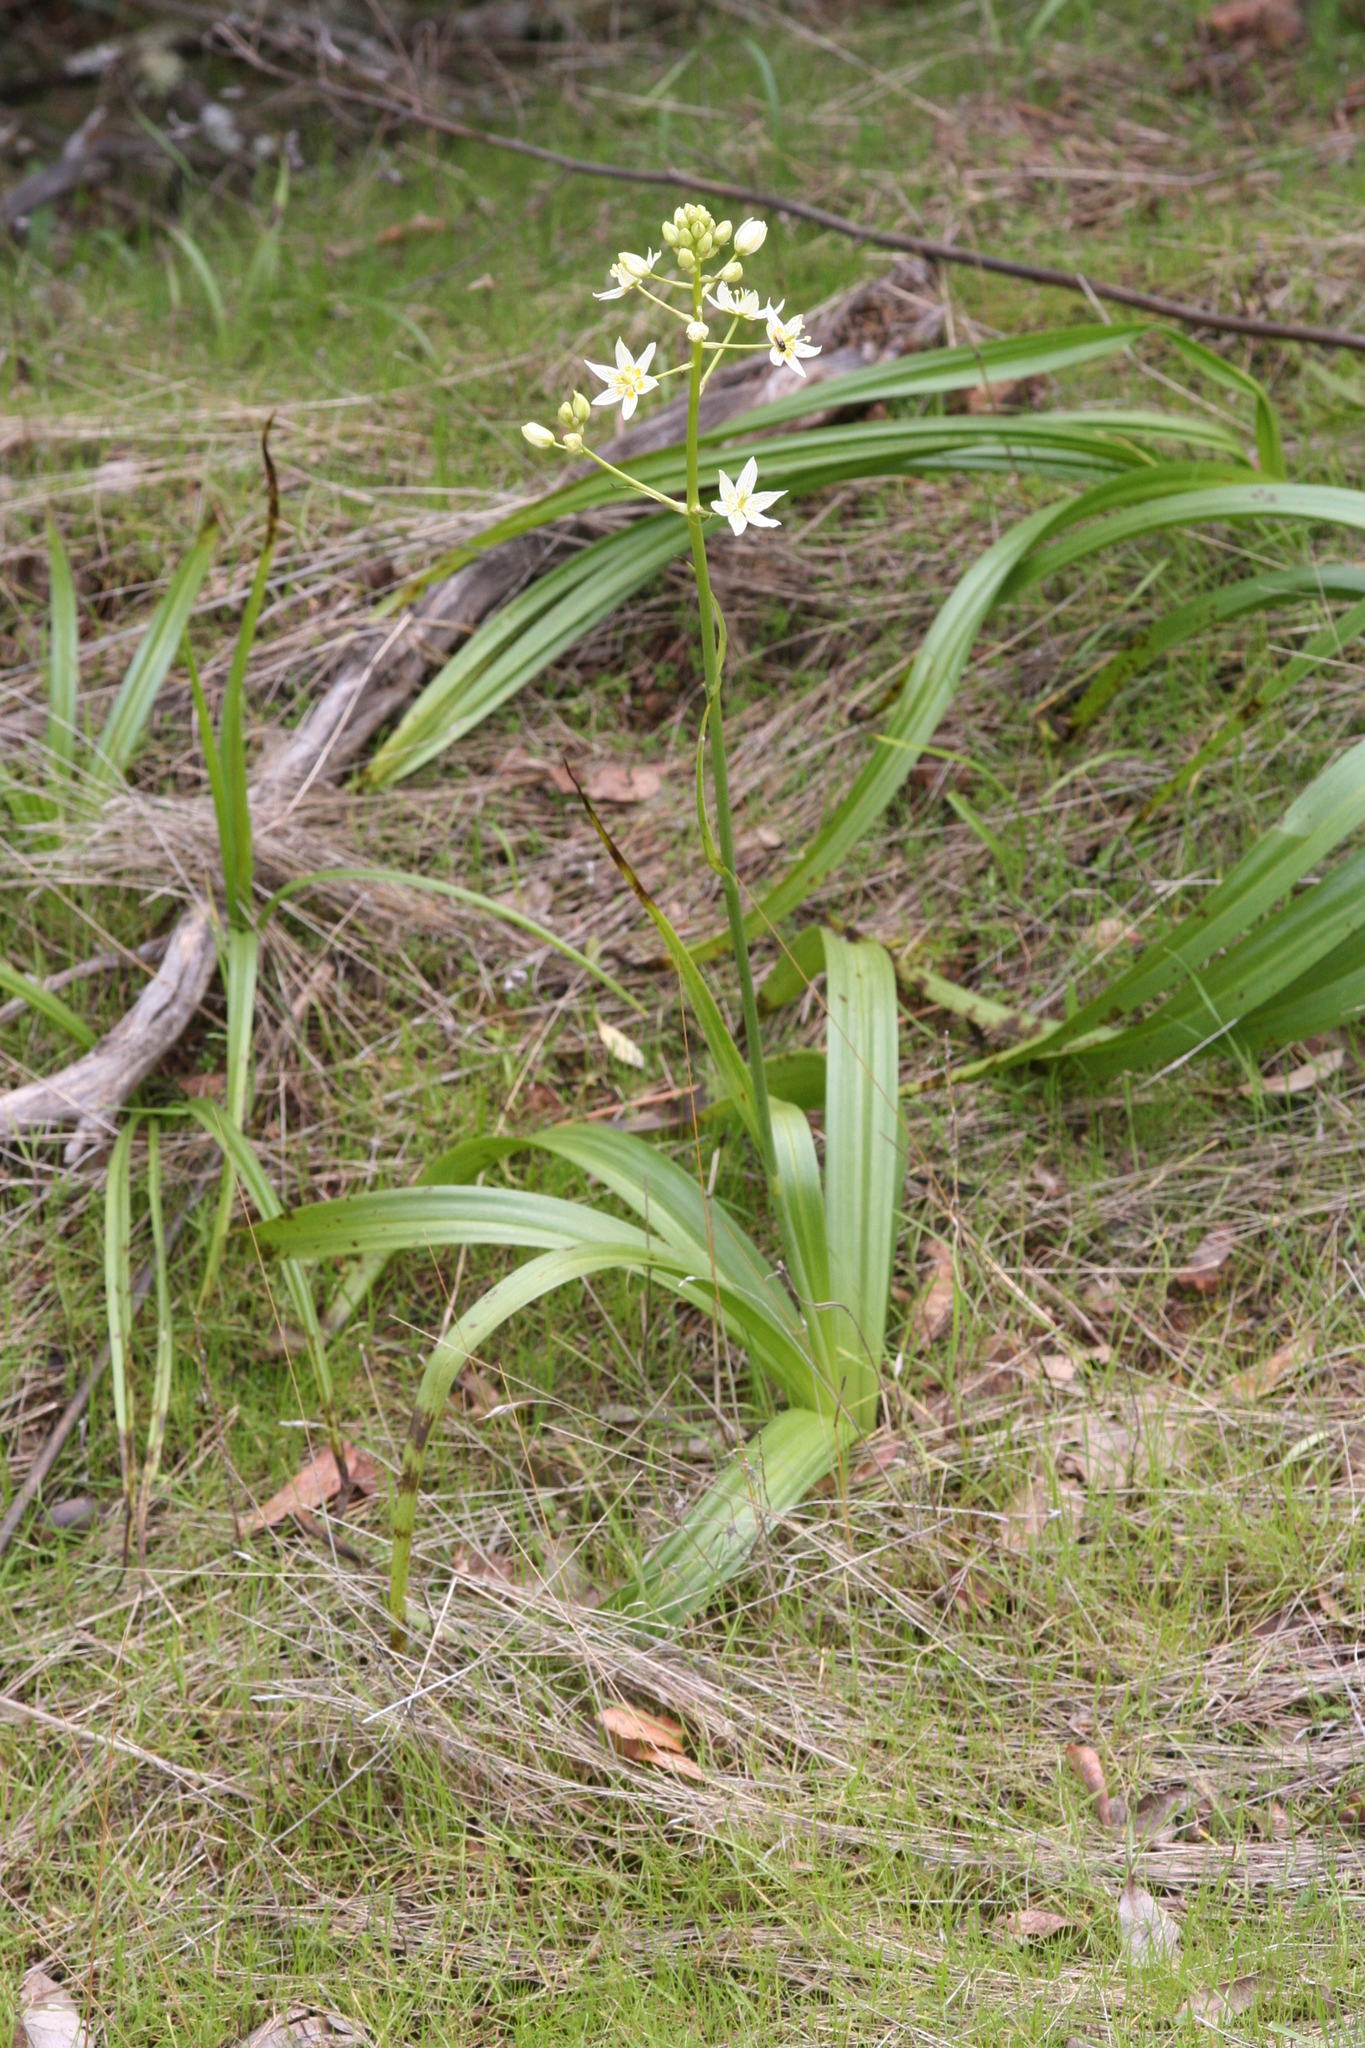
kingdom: Plantae
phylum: Tracheophyta
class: Liliopsida
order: Liliales
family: Melanthiaceae
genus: Toxicoscordion
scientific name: Toxicoscordion fremontii
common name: Fremont's death camas
